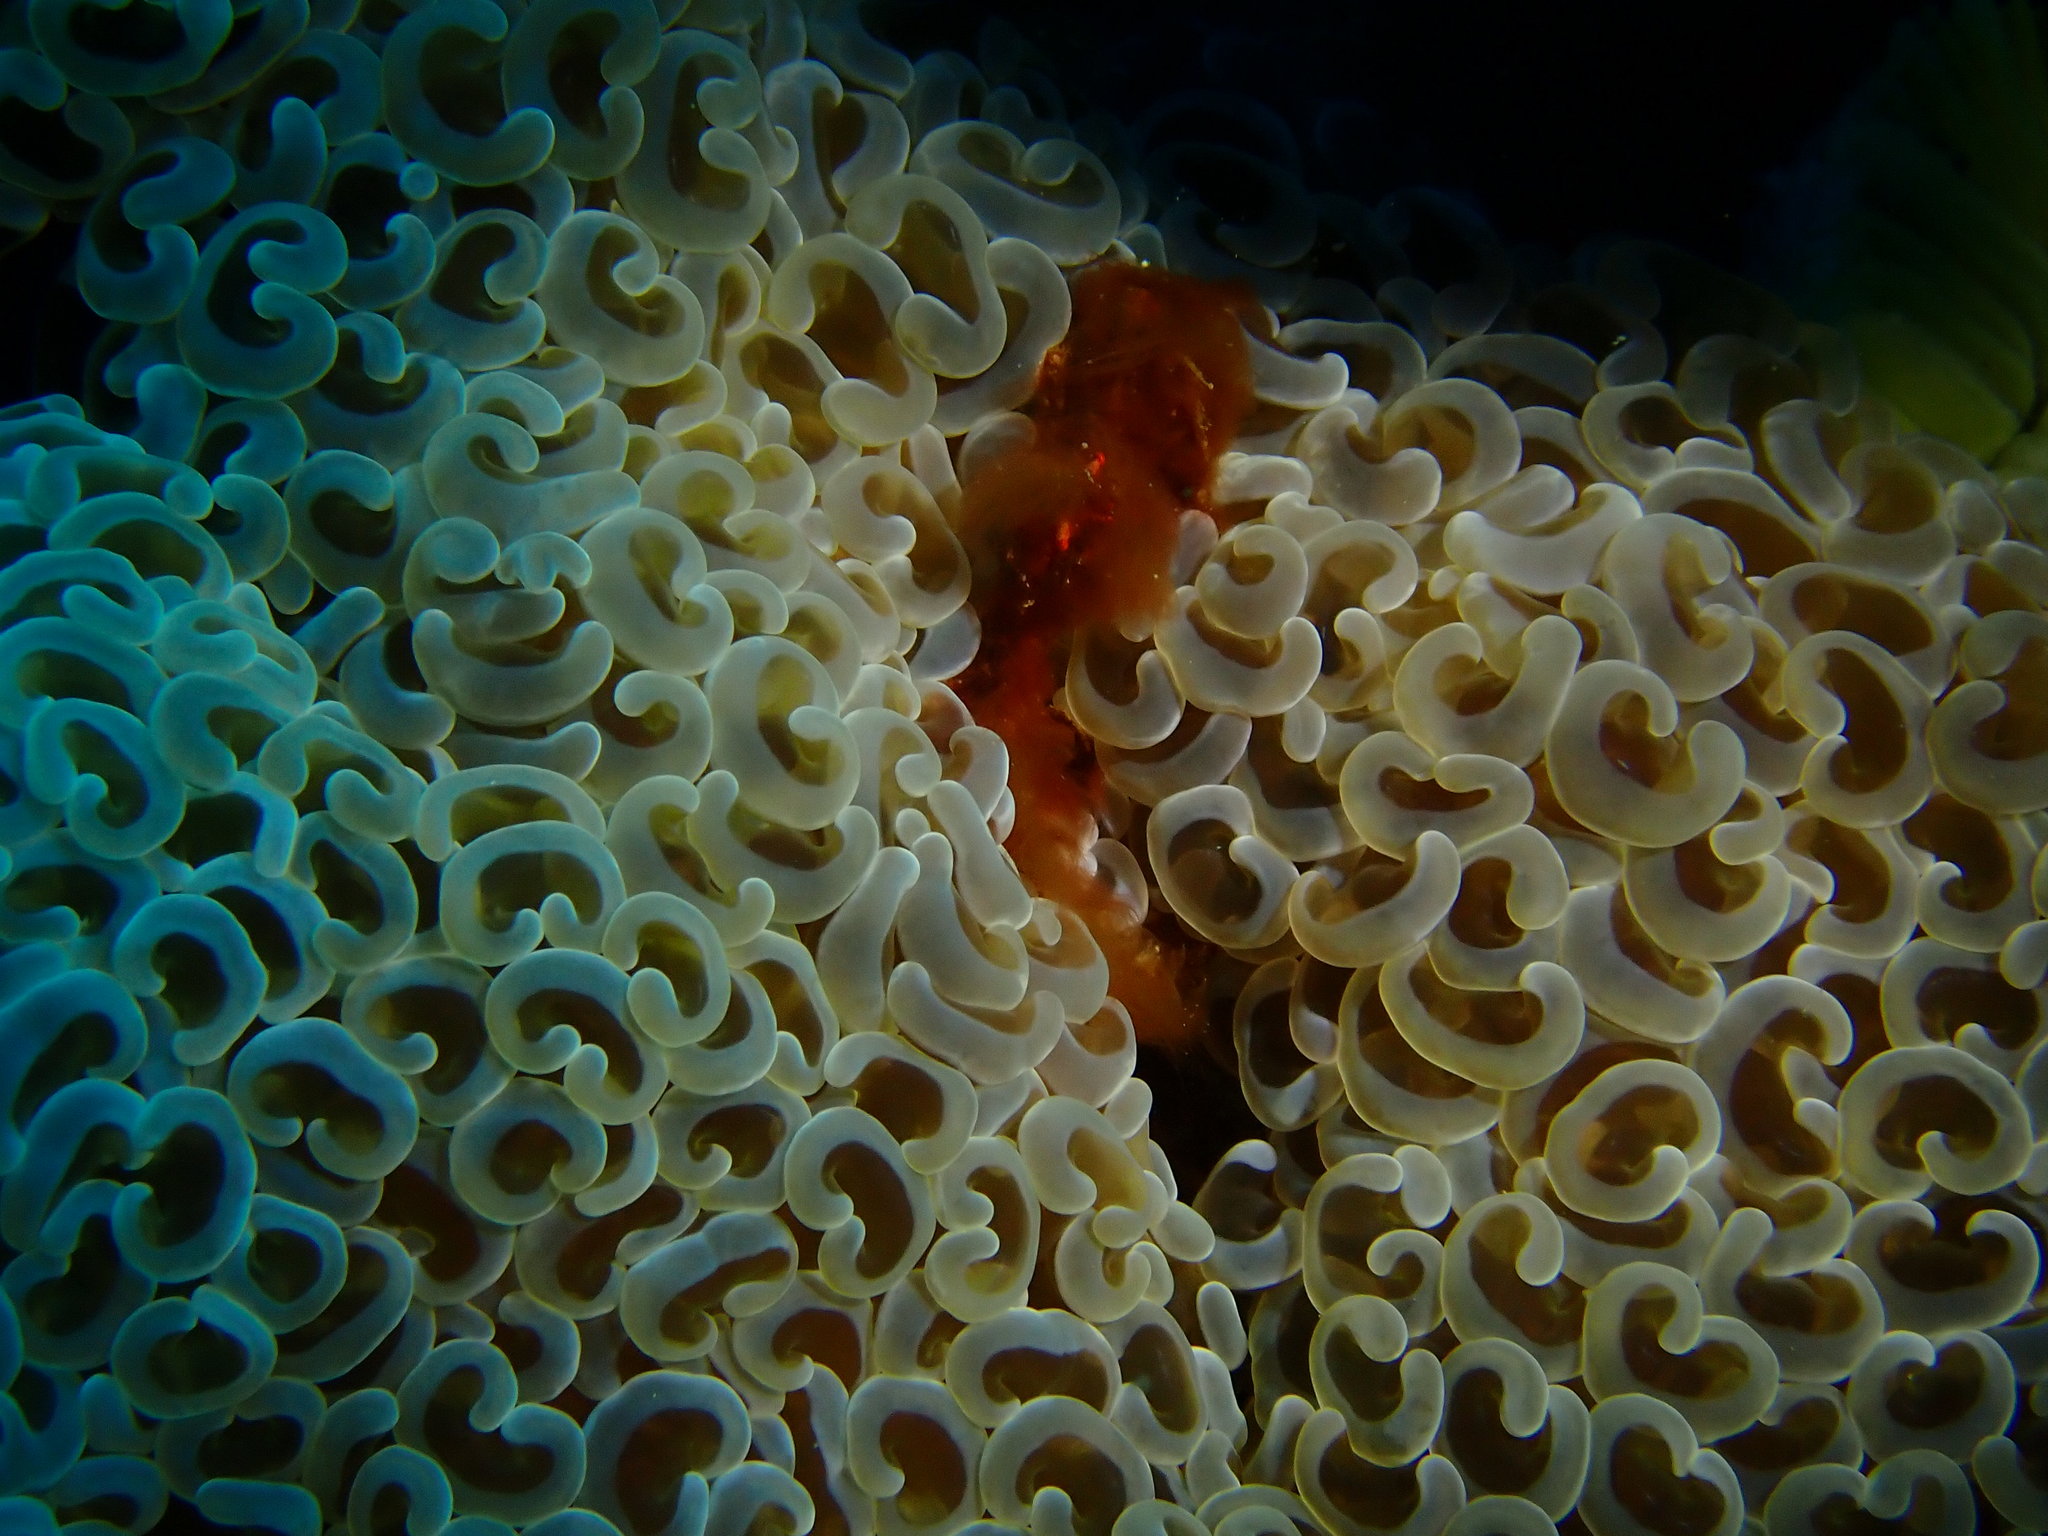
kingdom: Animalia
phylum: Cnidaria
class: Anthozoa
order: Scleractinia
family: Euphylliidae
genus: Fimbriaphyllia
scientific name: Fimbriaphyllia ancora
